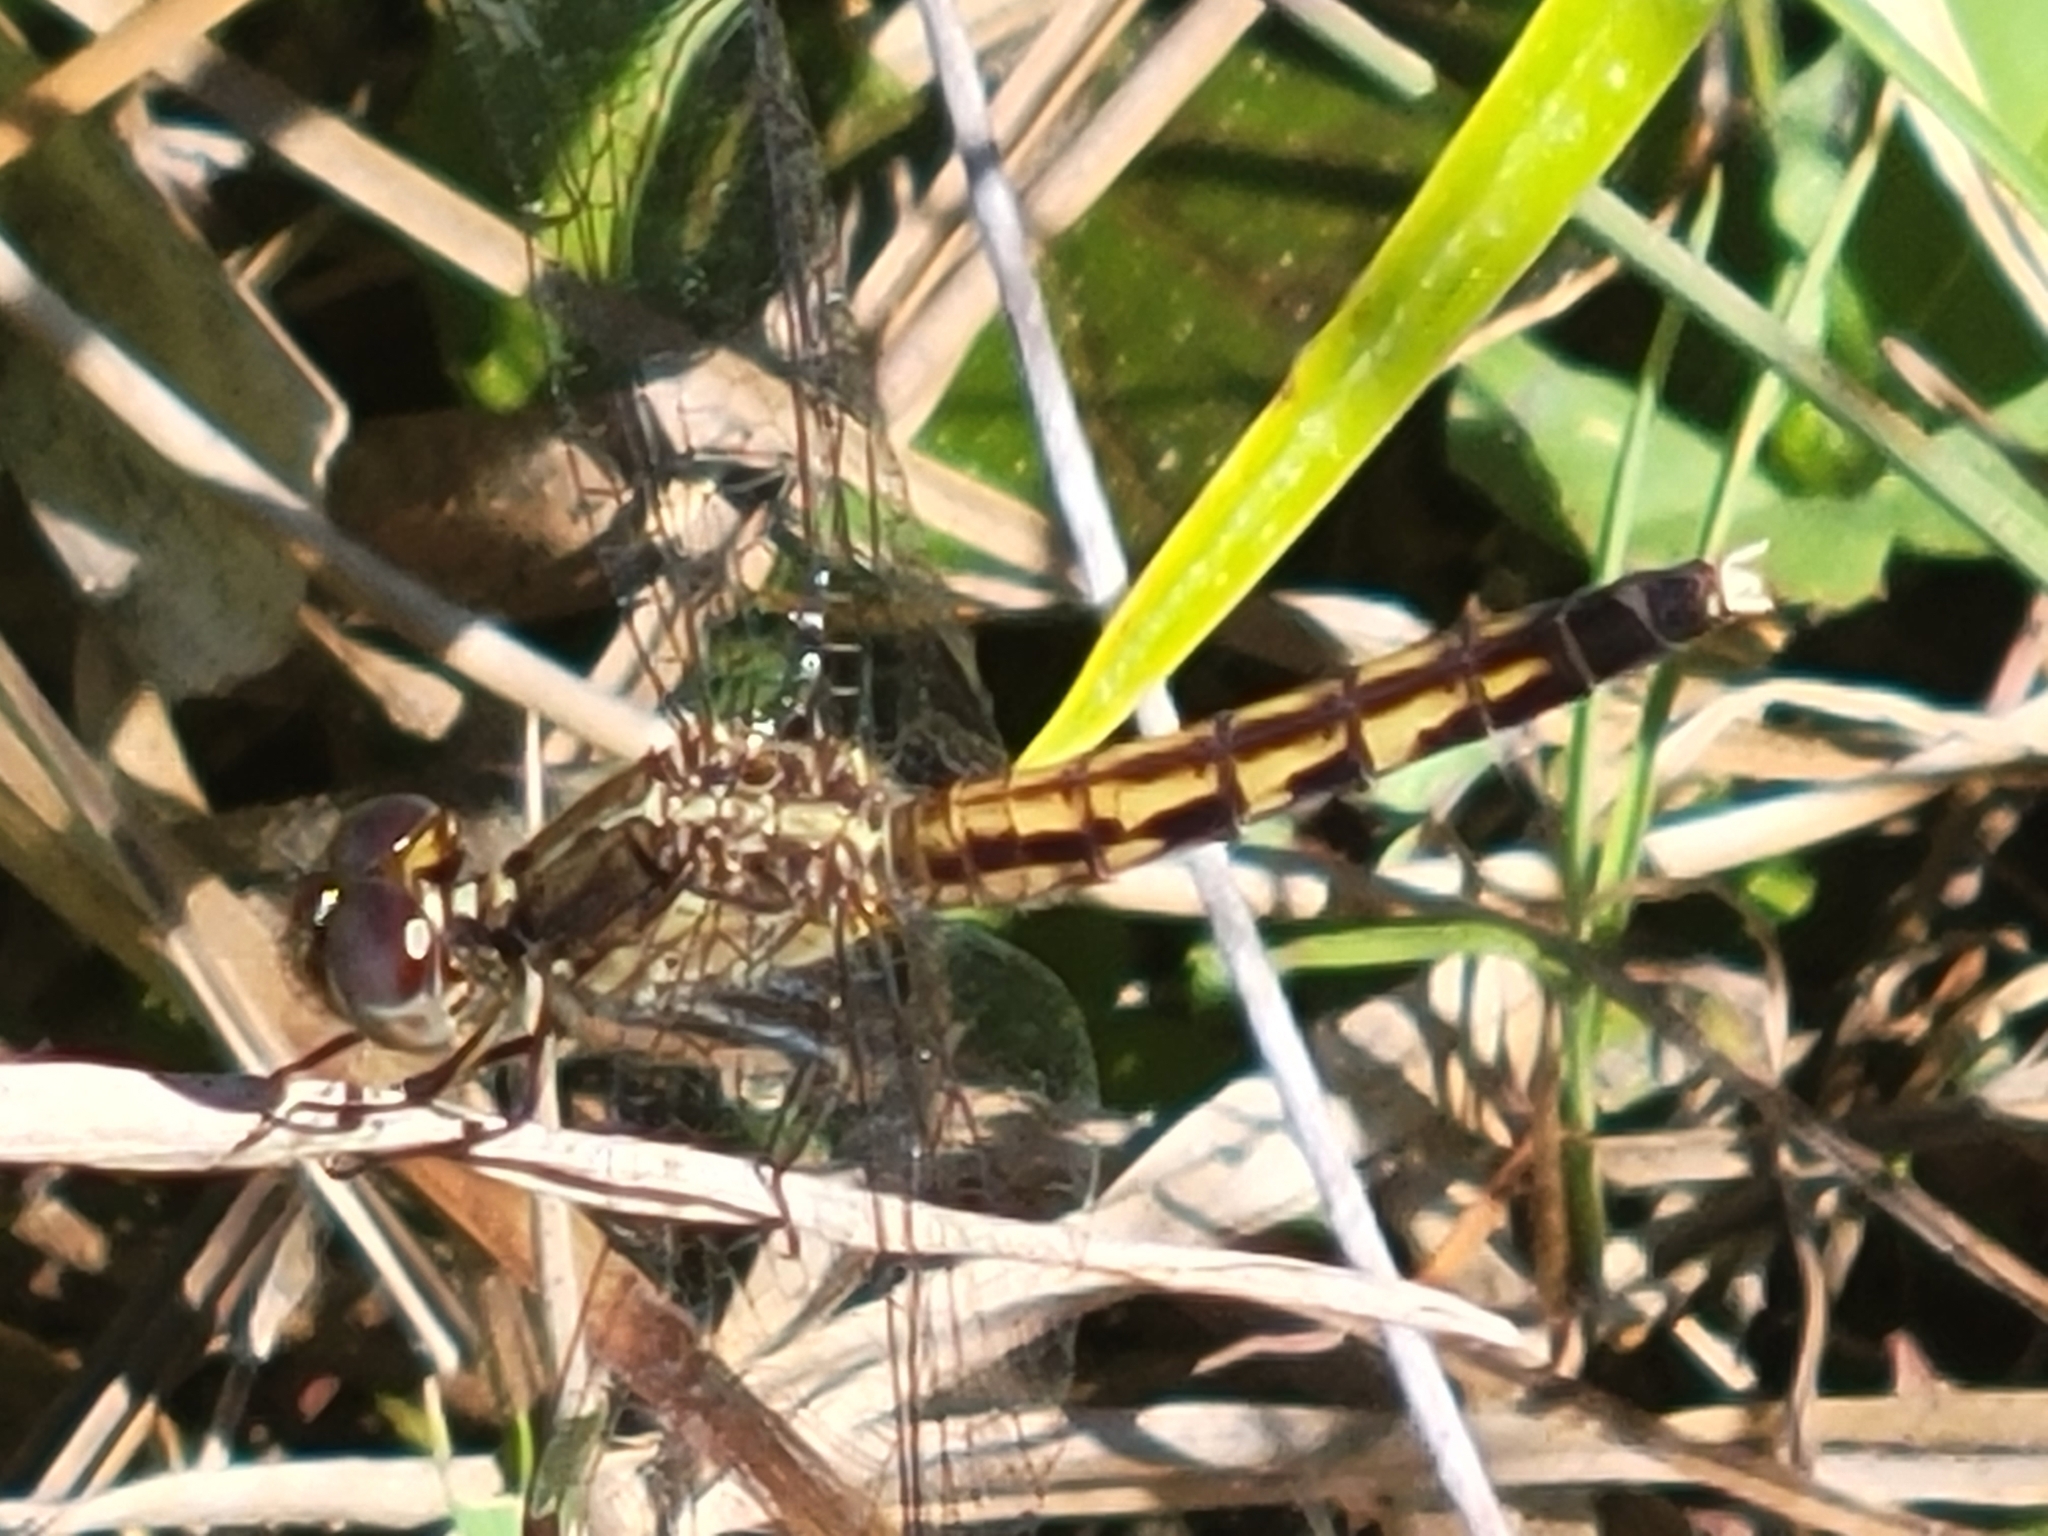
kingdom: Animalia
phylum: Arthropoda
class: Insecta
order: Odonata
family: Libellulidae
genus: Erythrodiplax
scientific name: Erythrodiplax minuscula
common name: Little blue dragonlet
